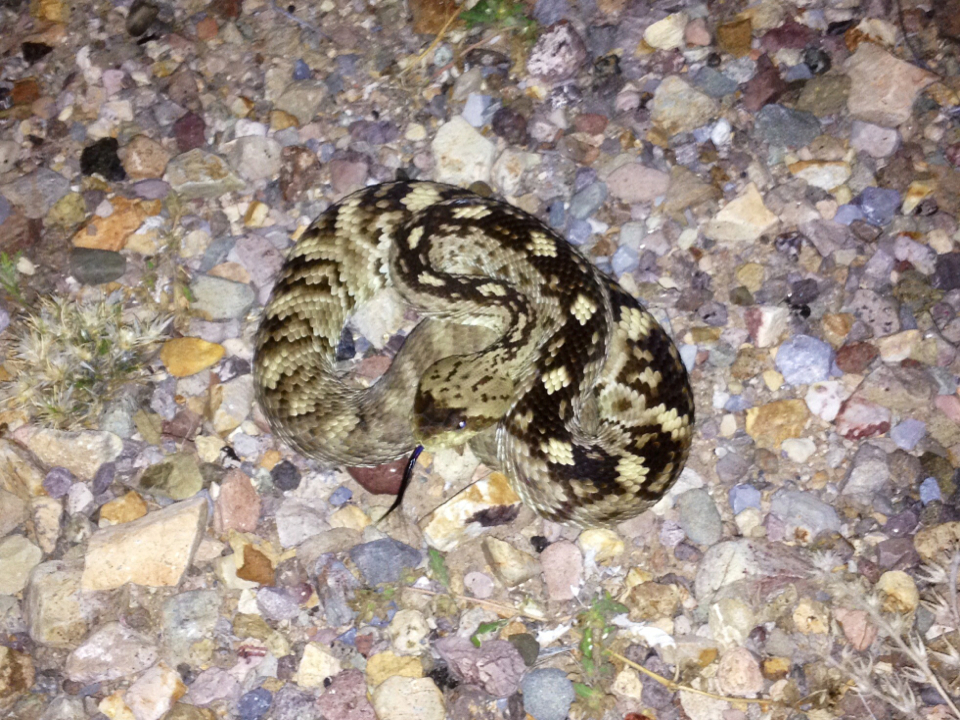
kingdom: Animalia
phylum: Chordata
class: Squamata
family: Viperidae
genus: Crotalus
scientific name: Crotalus ornatus
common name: Black-tailed rattlesnake
